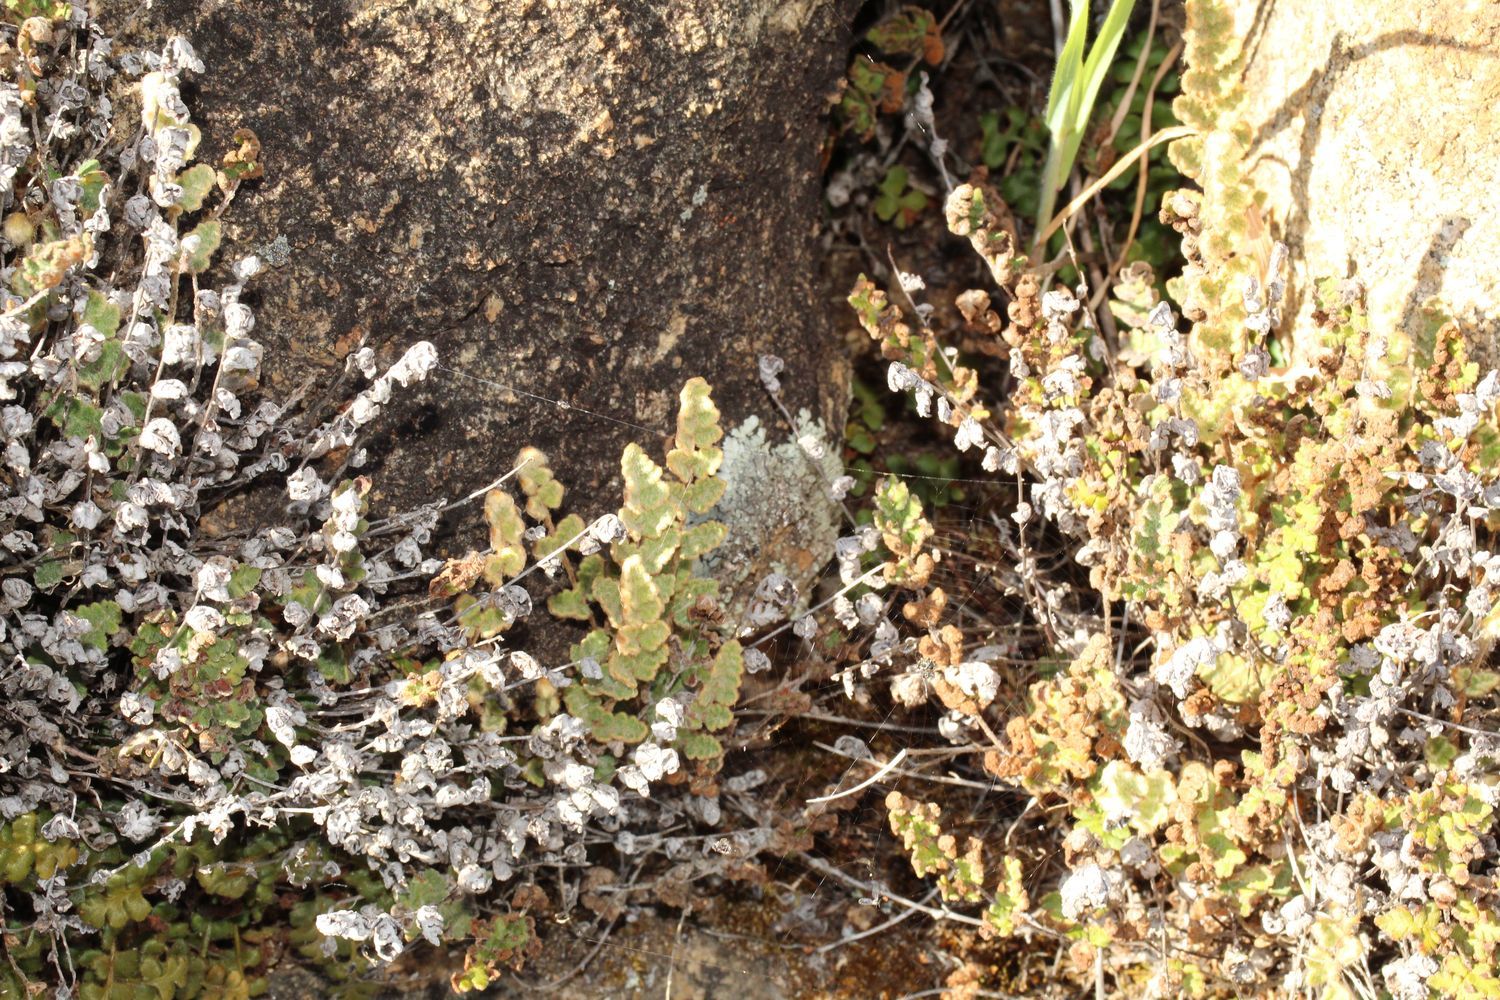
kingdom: Plantae
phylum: Tracheophyta
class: Polypodiopsida
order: Polypodiales
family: Aspleniaceae
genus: Asplenium
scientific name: Asplenium subglandulosum
